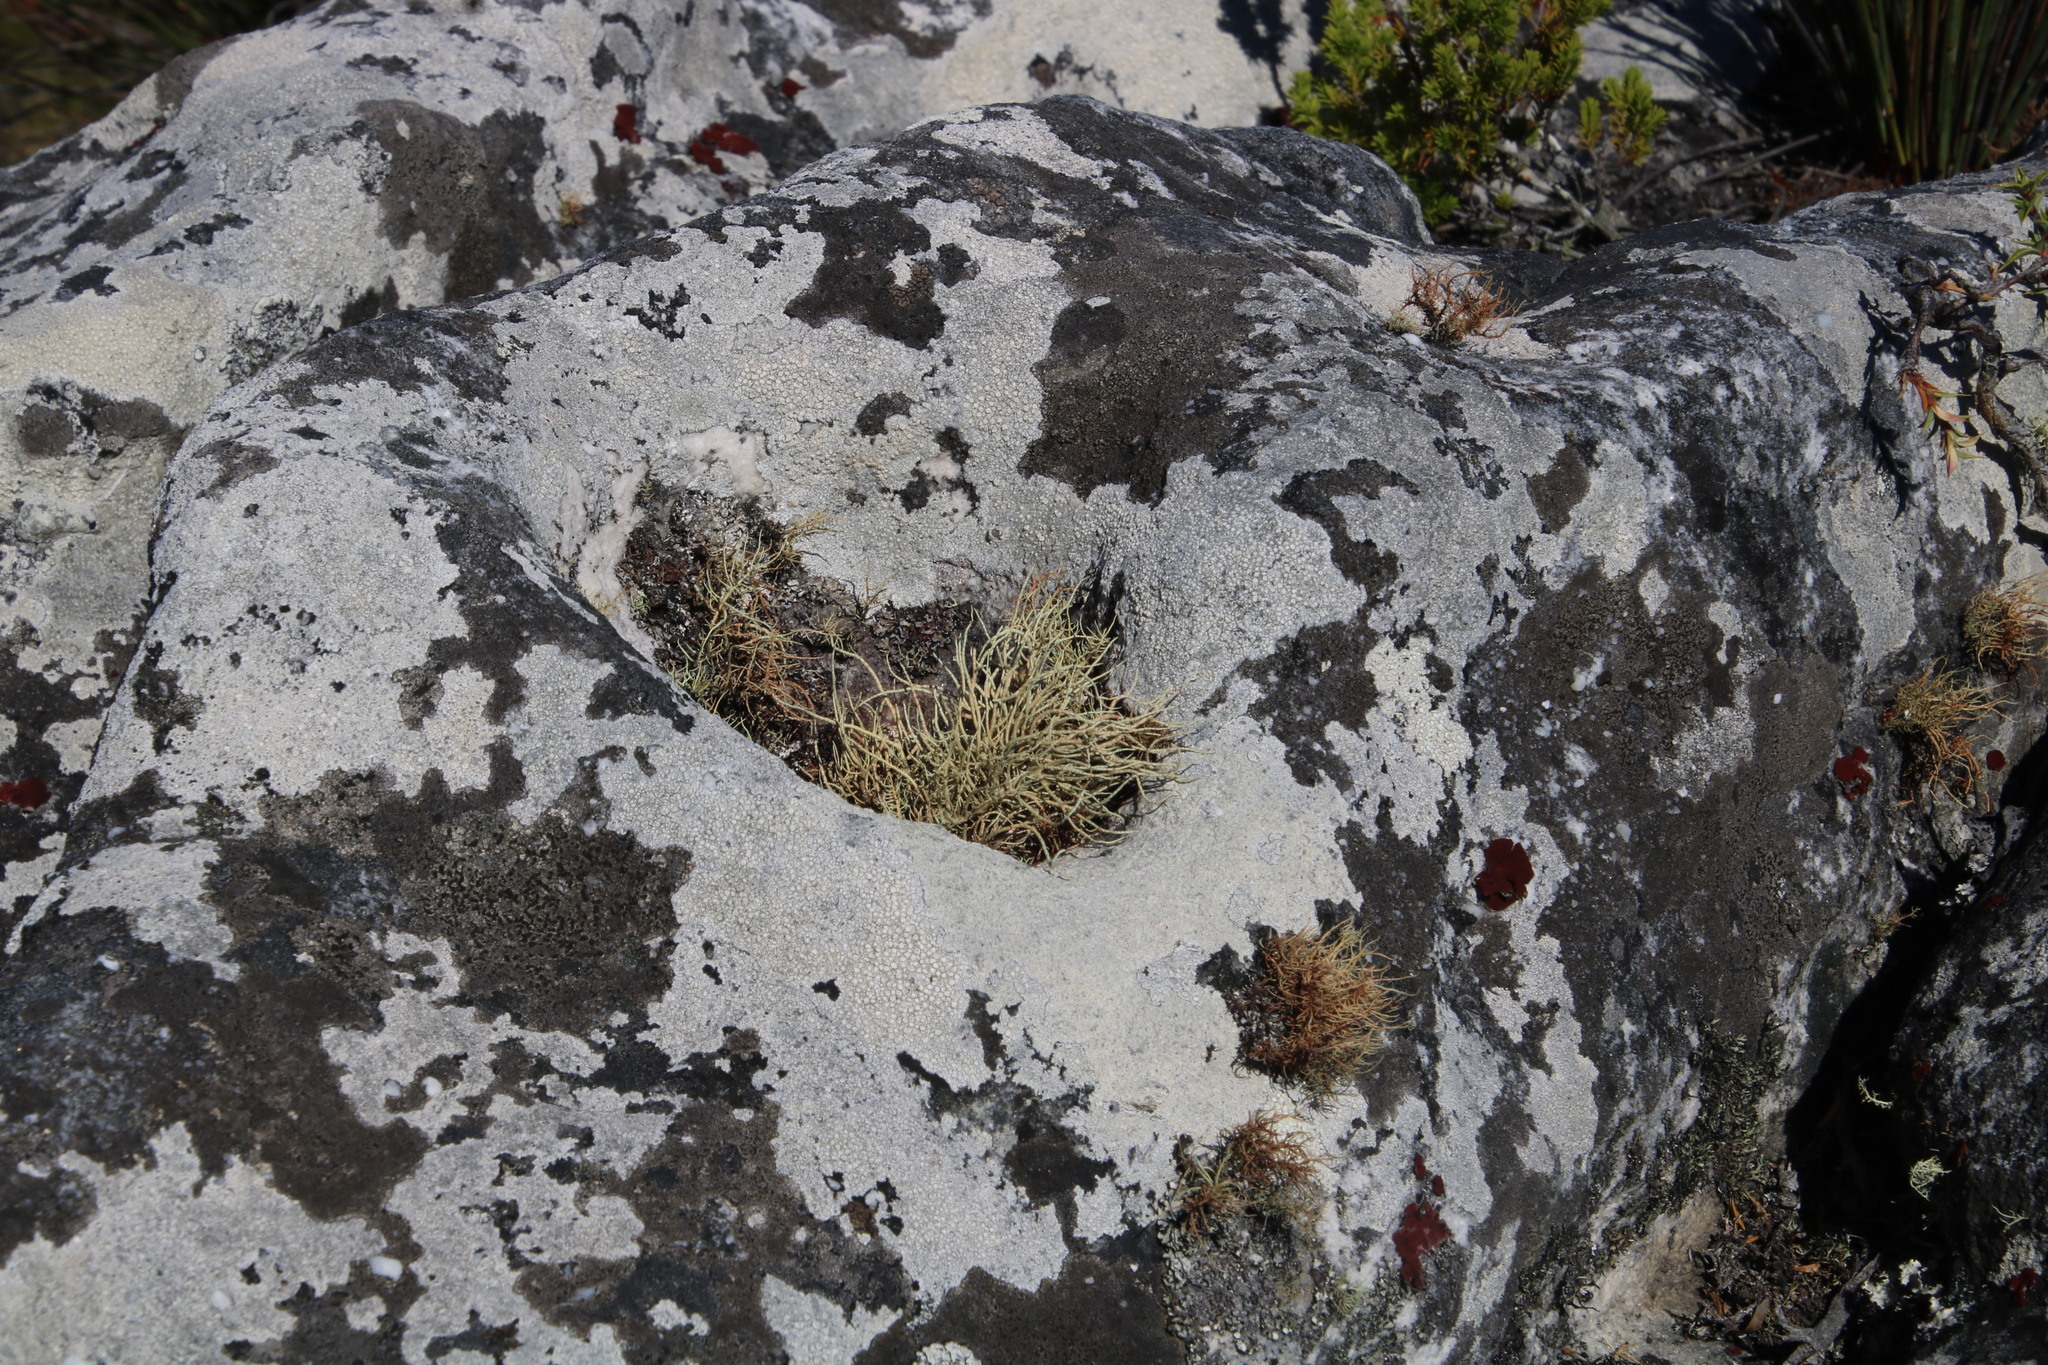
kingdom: Fungi
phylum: Ascomycota
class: Lecanoromycetes
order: Lecanorales
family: Parmeliaceae
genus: Usnea
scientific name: Usnea maculata
